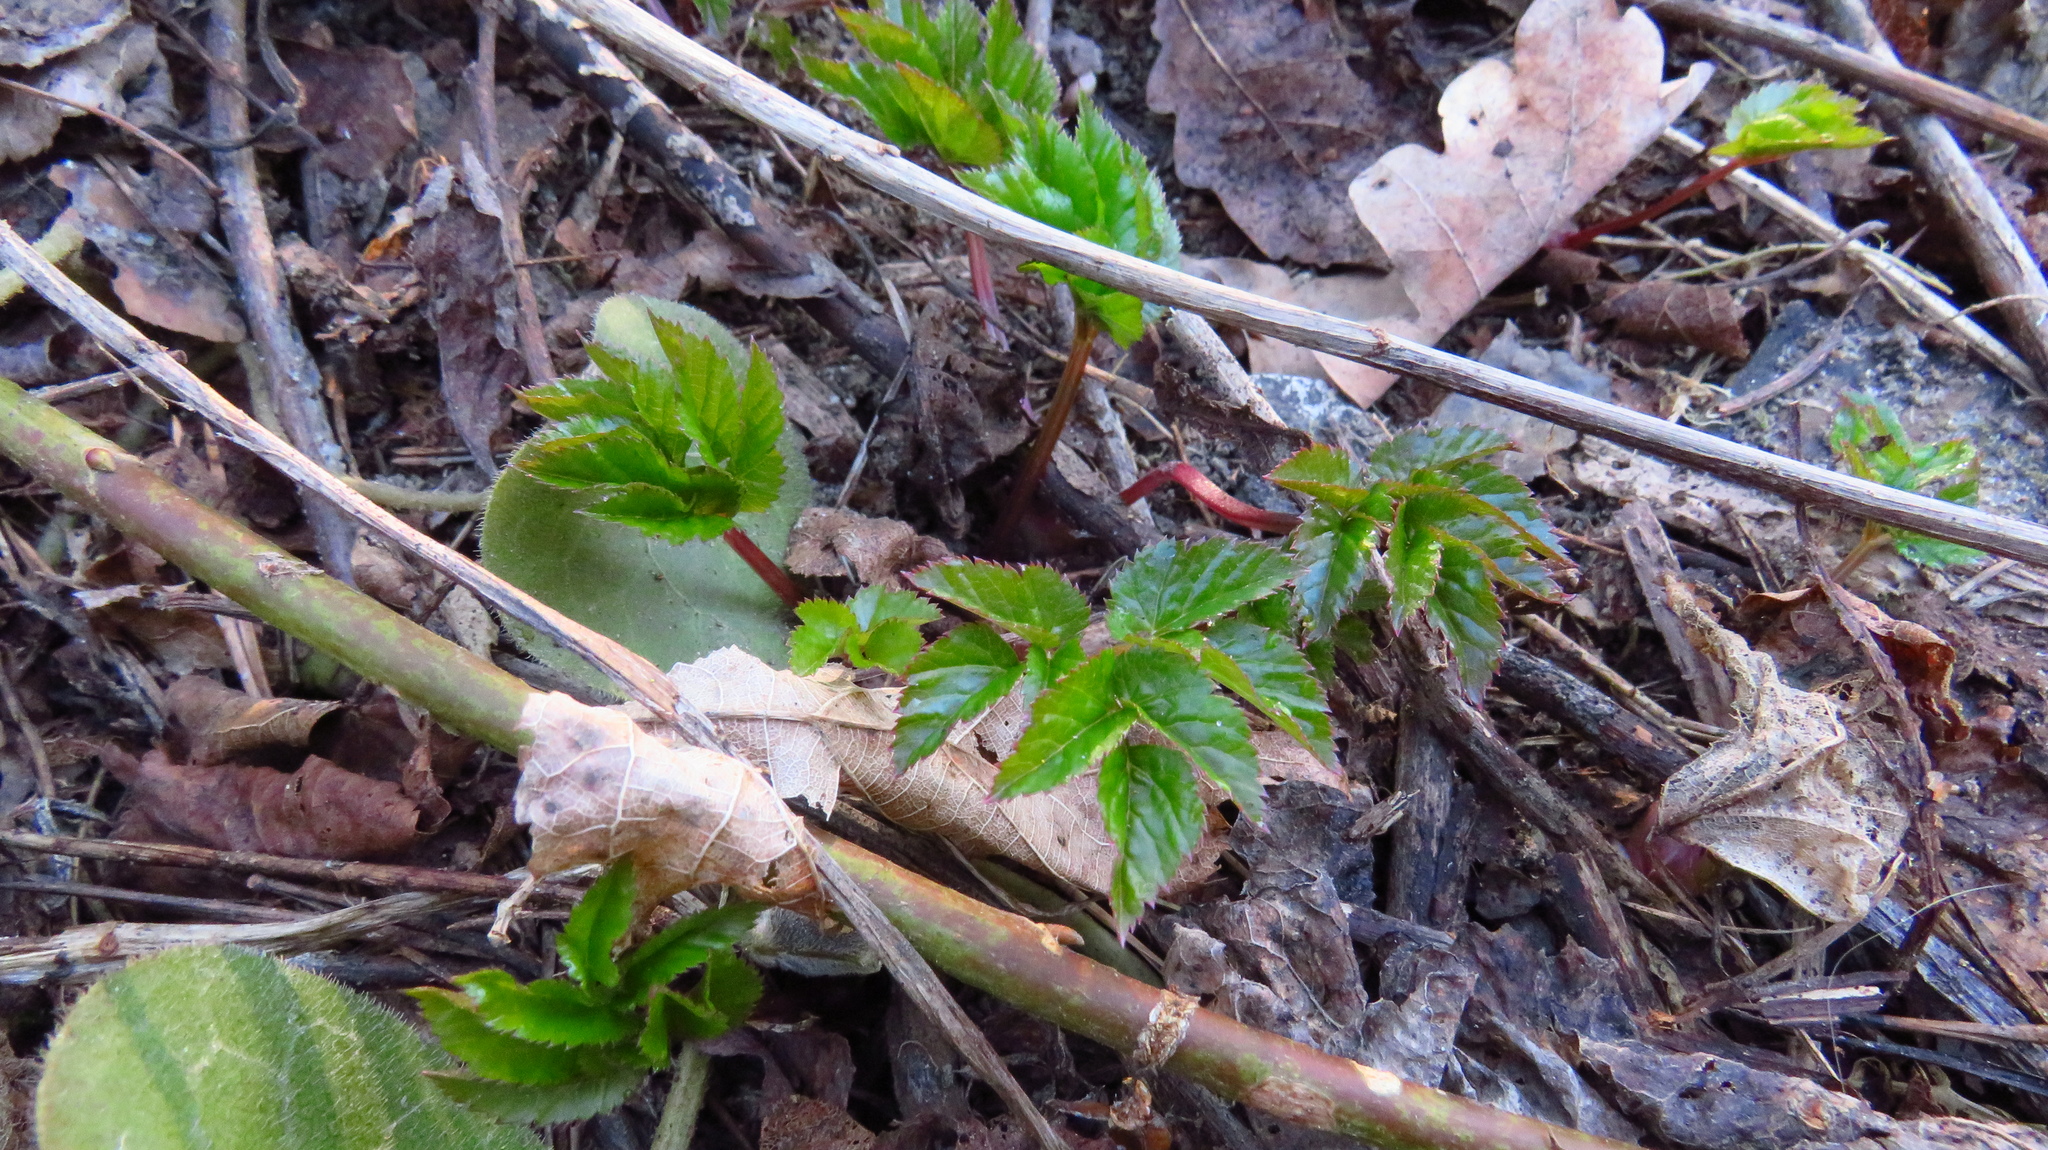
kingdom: Plantae
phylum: Tracheophyta
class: Magnoliopsida
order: Apiales
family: Apiaceae
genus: Aegopodium
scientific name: Aegopodium podagraria
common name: Ground-elder
